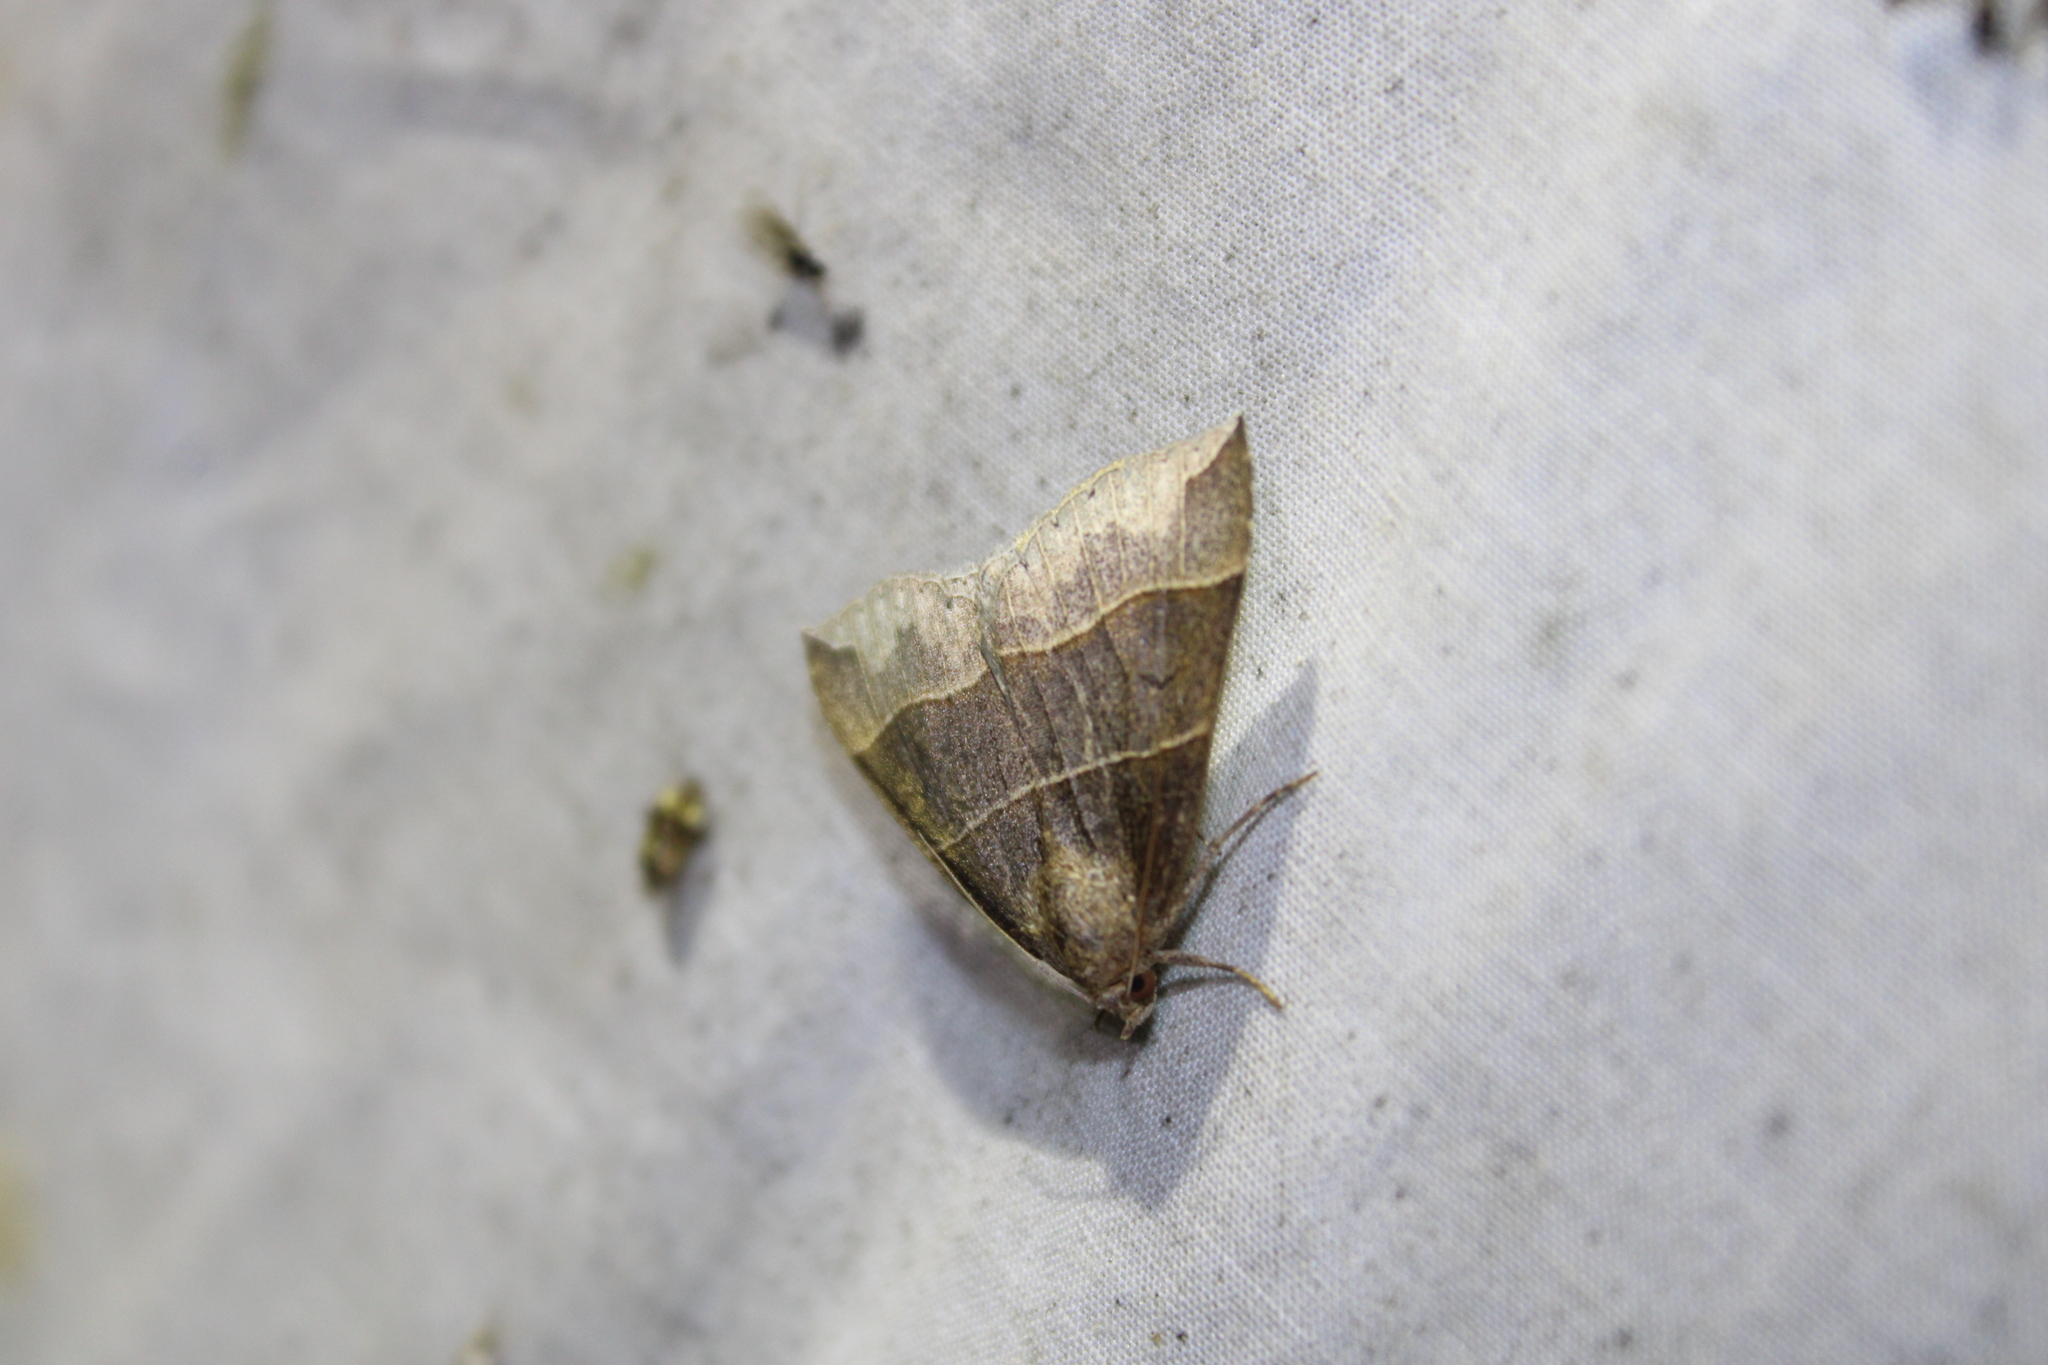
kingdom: Animalia
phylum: Arthropoda
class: Insecta
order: Lepidoptera
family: Erebidae
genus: Parallelia
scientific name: Parallelia bistriaris
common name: Maple looper moth
